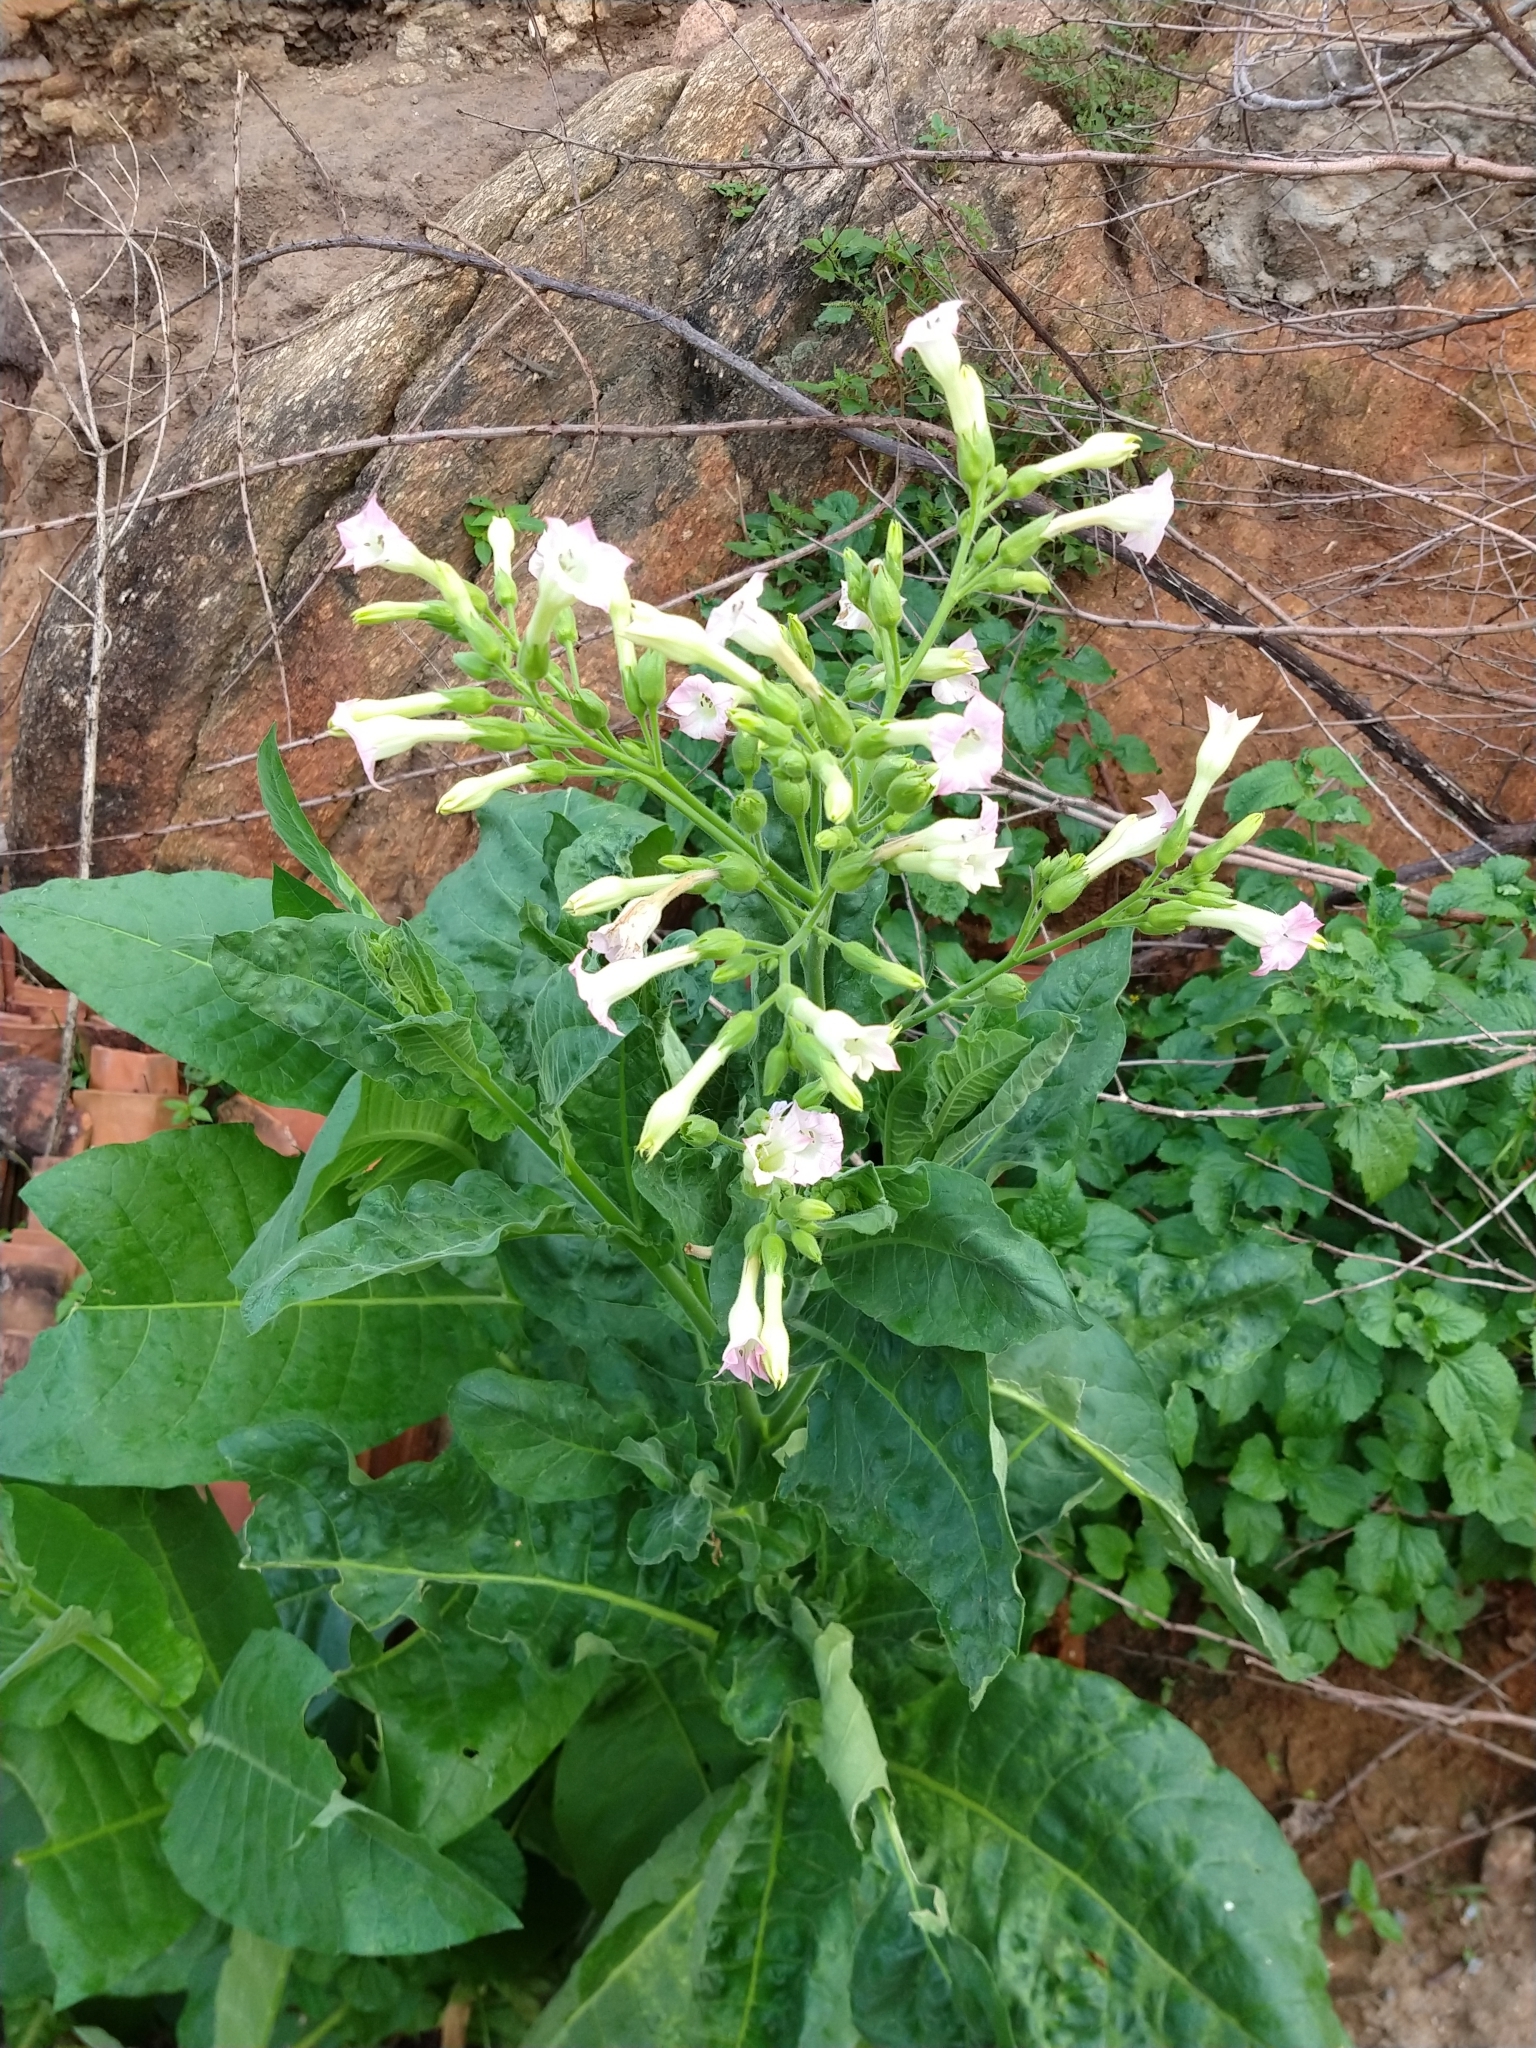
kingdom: Plantae
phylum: Tracheophyta
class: Magnoliopsida
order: Solanales
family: Solanaceae
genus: Nicotiana
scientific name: Nicotiana tabacum
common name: Tobacco
